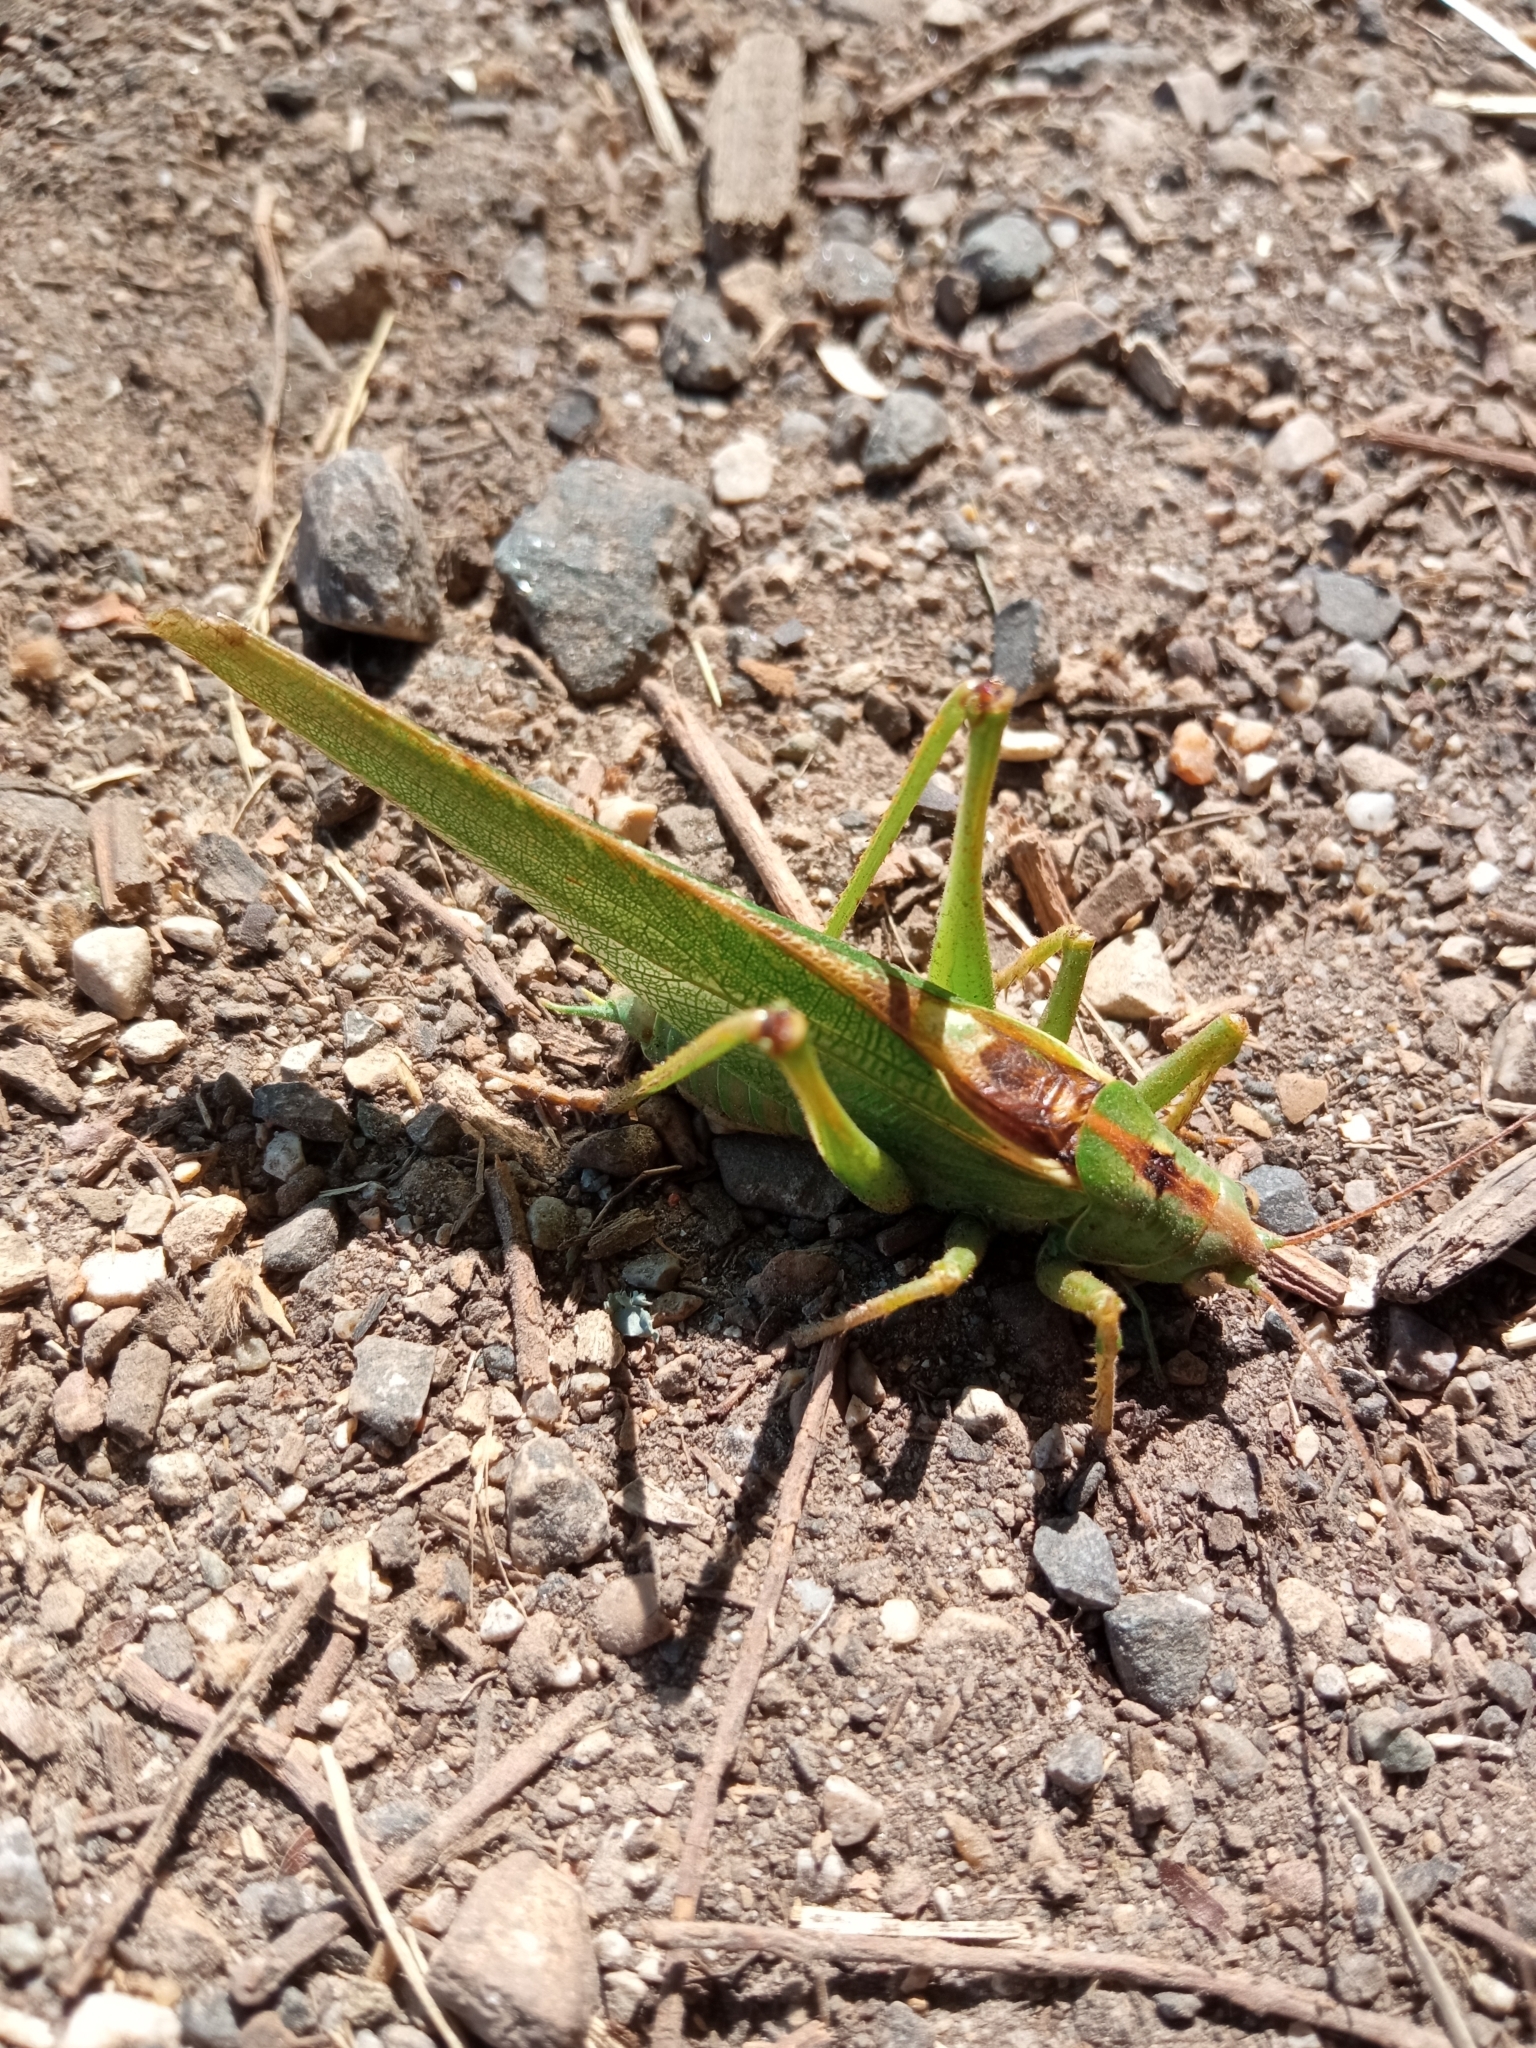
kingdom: Animalia
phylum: Arthropoda
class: Insecta
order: Orthoptera
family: Tettigoniidae
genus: Tettigonia
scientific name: Tettigonia viridissima
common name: Great green bush-cricket
